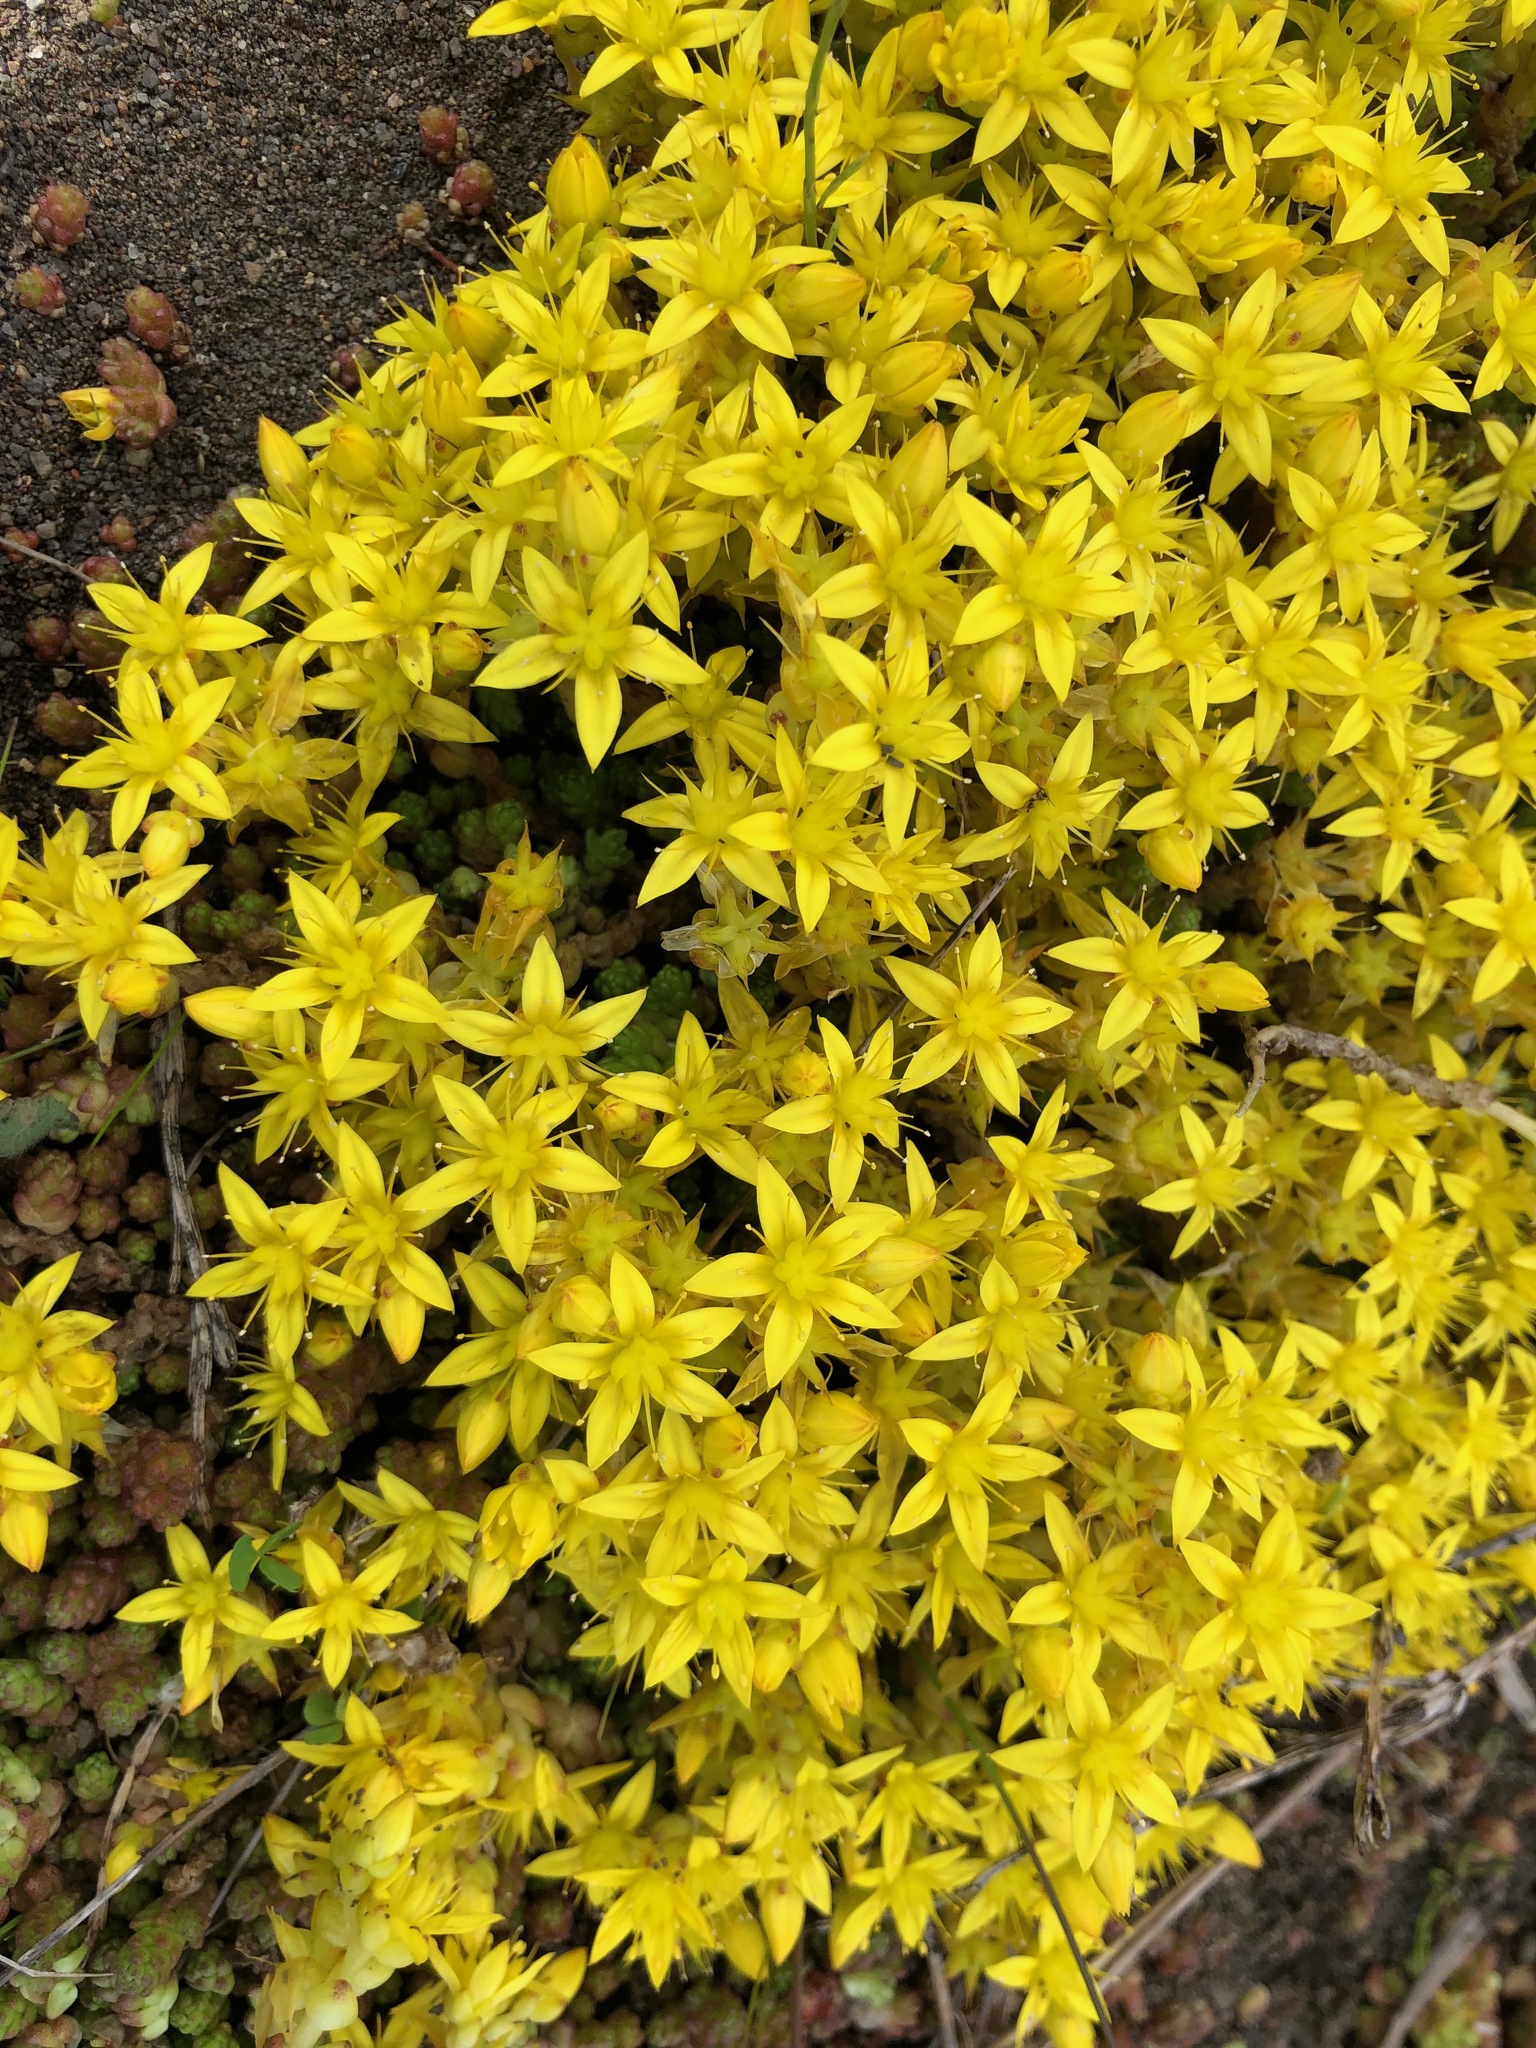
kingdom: Plantae
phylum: Tracheophyta
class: Magnoliopsida
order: Saxifragales
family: Crassulaceae
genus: Sedum
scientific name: Sedum acre
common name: Biting stonecrop
